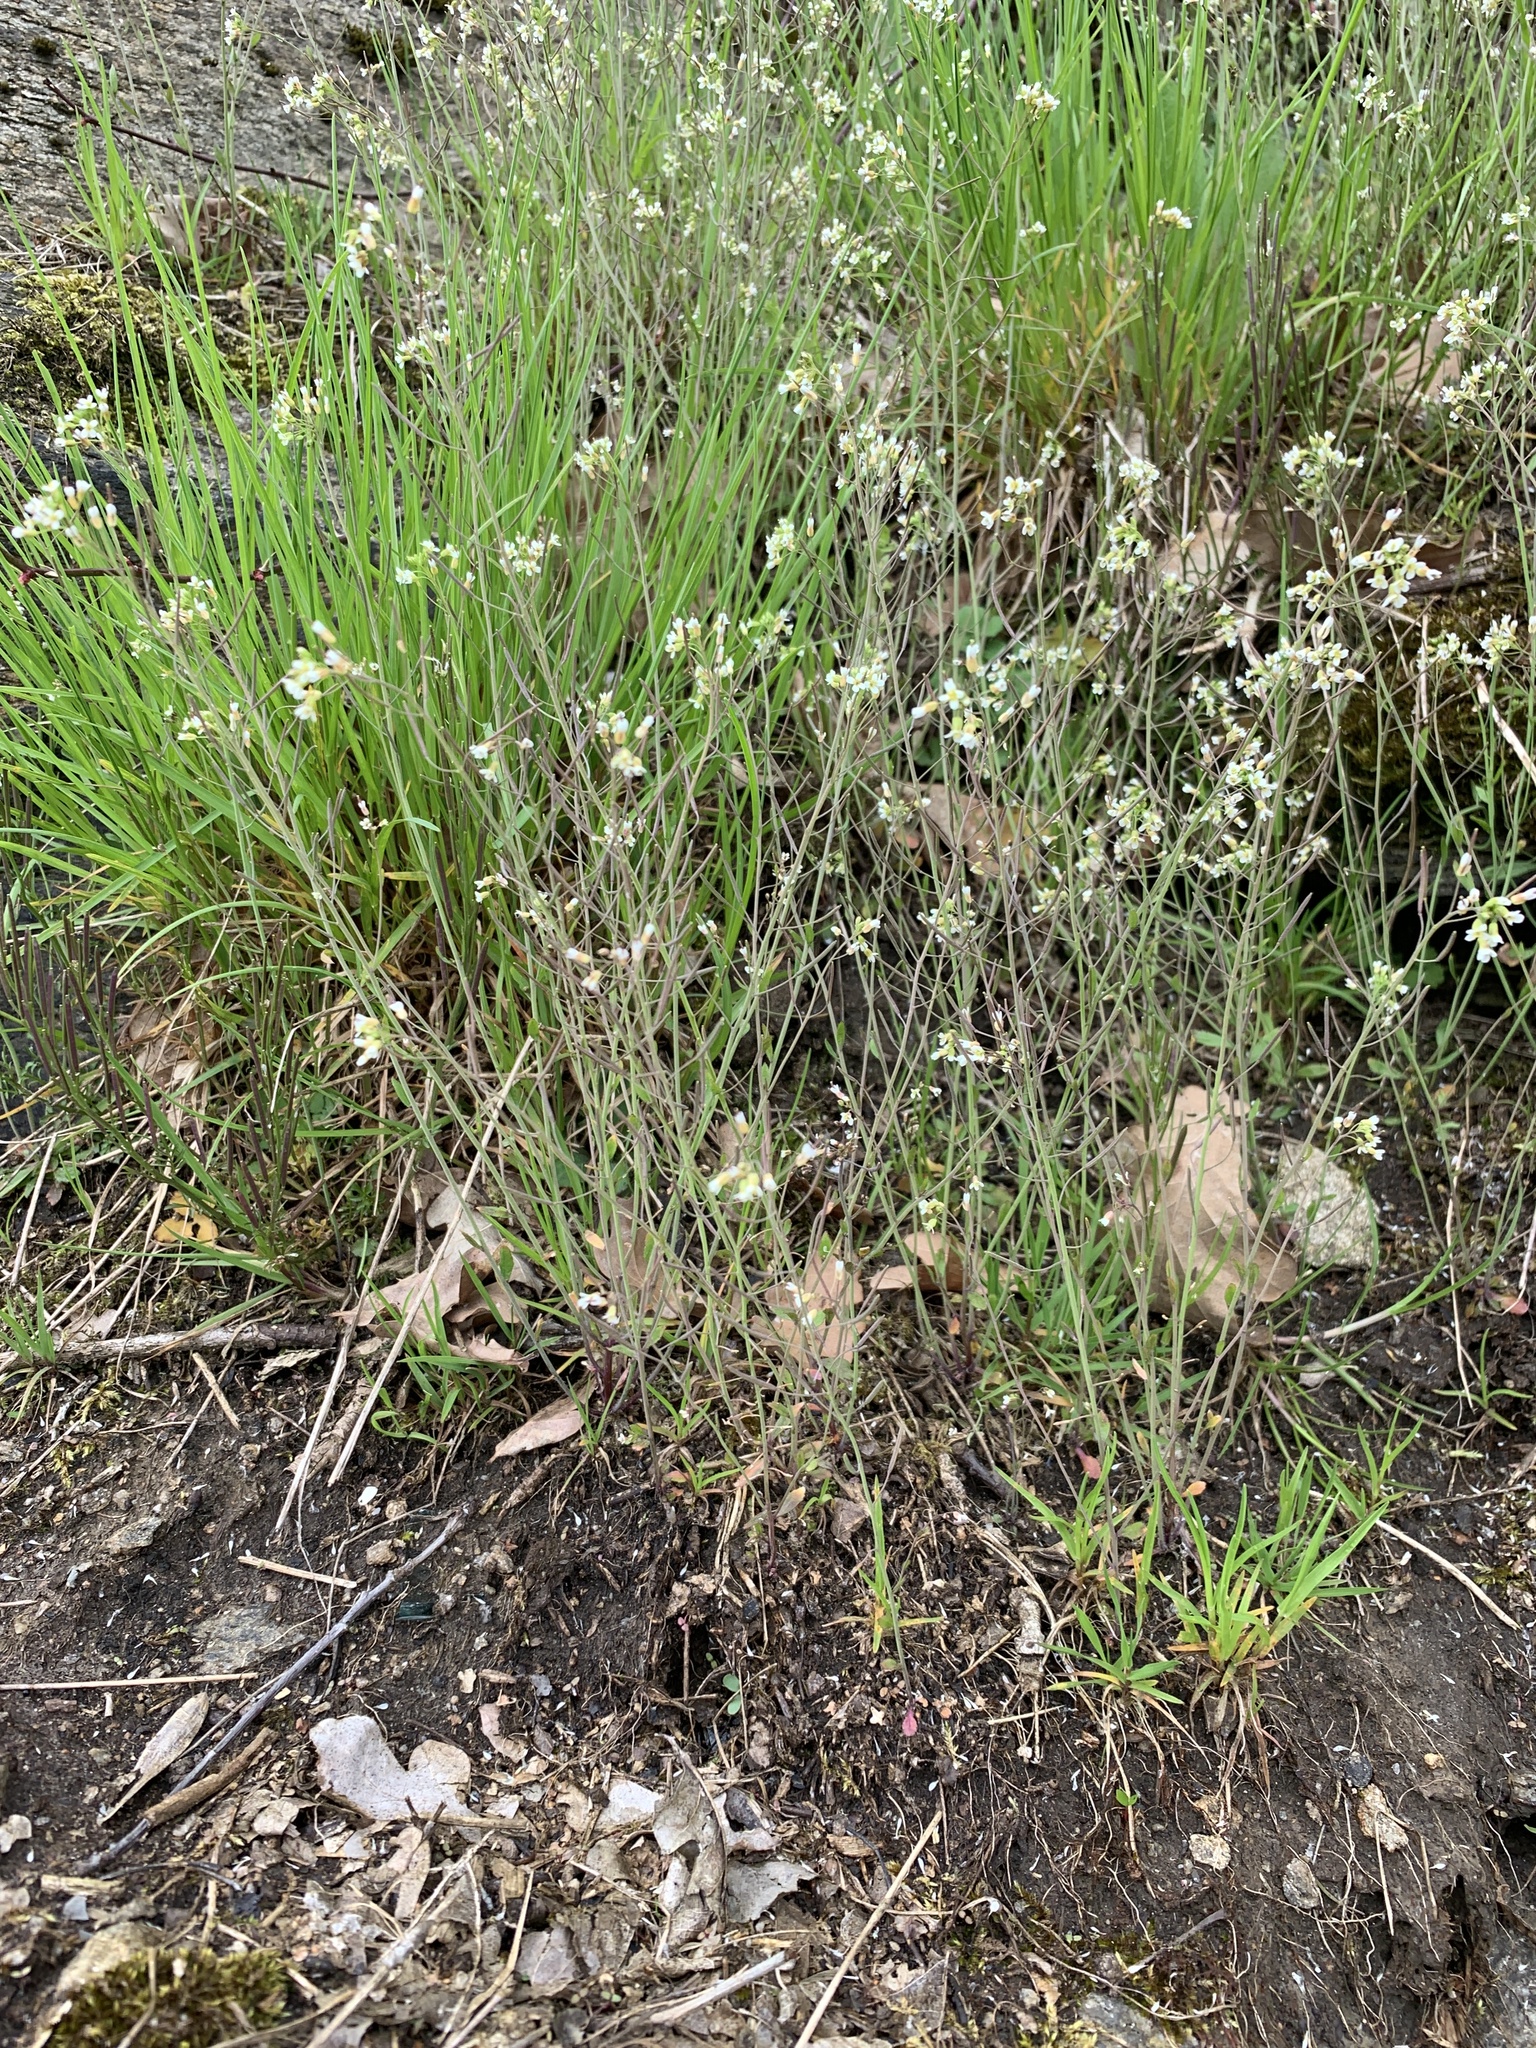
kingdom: Plantae
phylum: Tracheophyta
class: Magnoliopsida
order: Brassicales
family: Brassicaceae
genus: Arabidopsis
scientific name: Arabidopsis thaliana
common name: Thale cress
